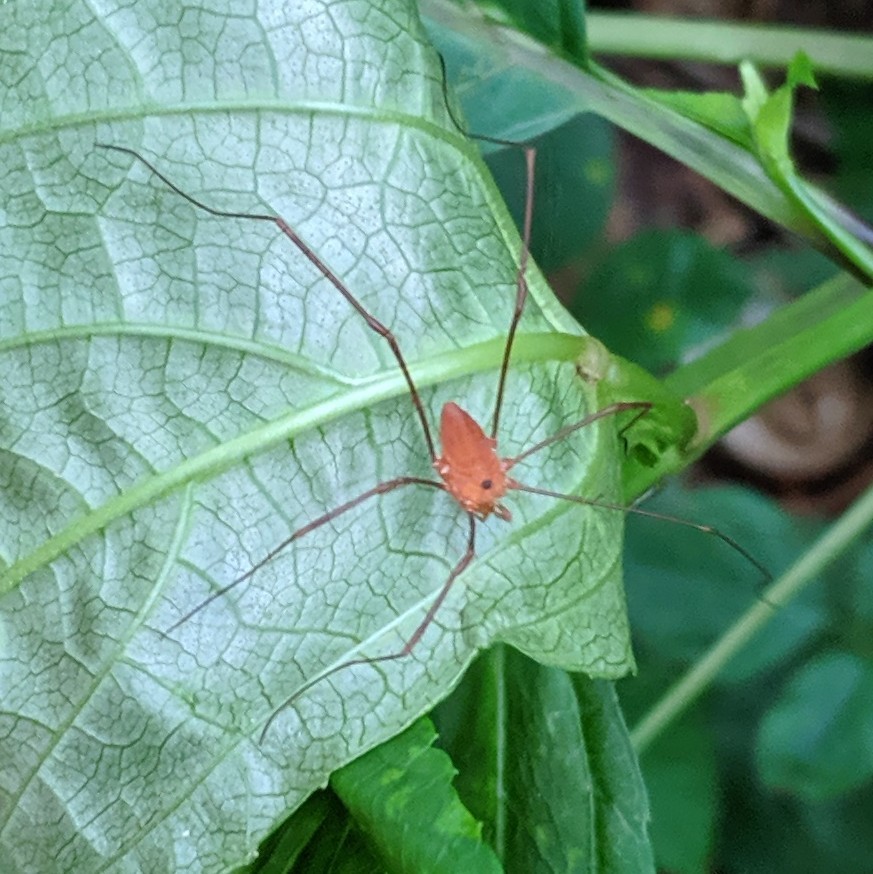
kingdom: Animalia
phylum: Arthropoda
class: Arachnida
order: Opiliones
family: Sclerosomatidae
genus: Leiobunum
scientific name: Leiobunum ventricosum
